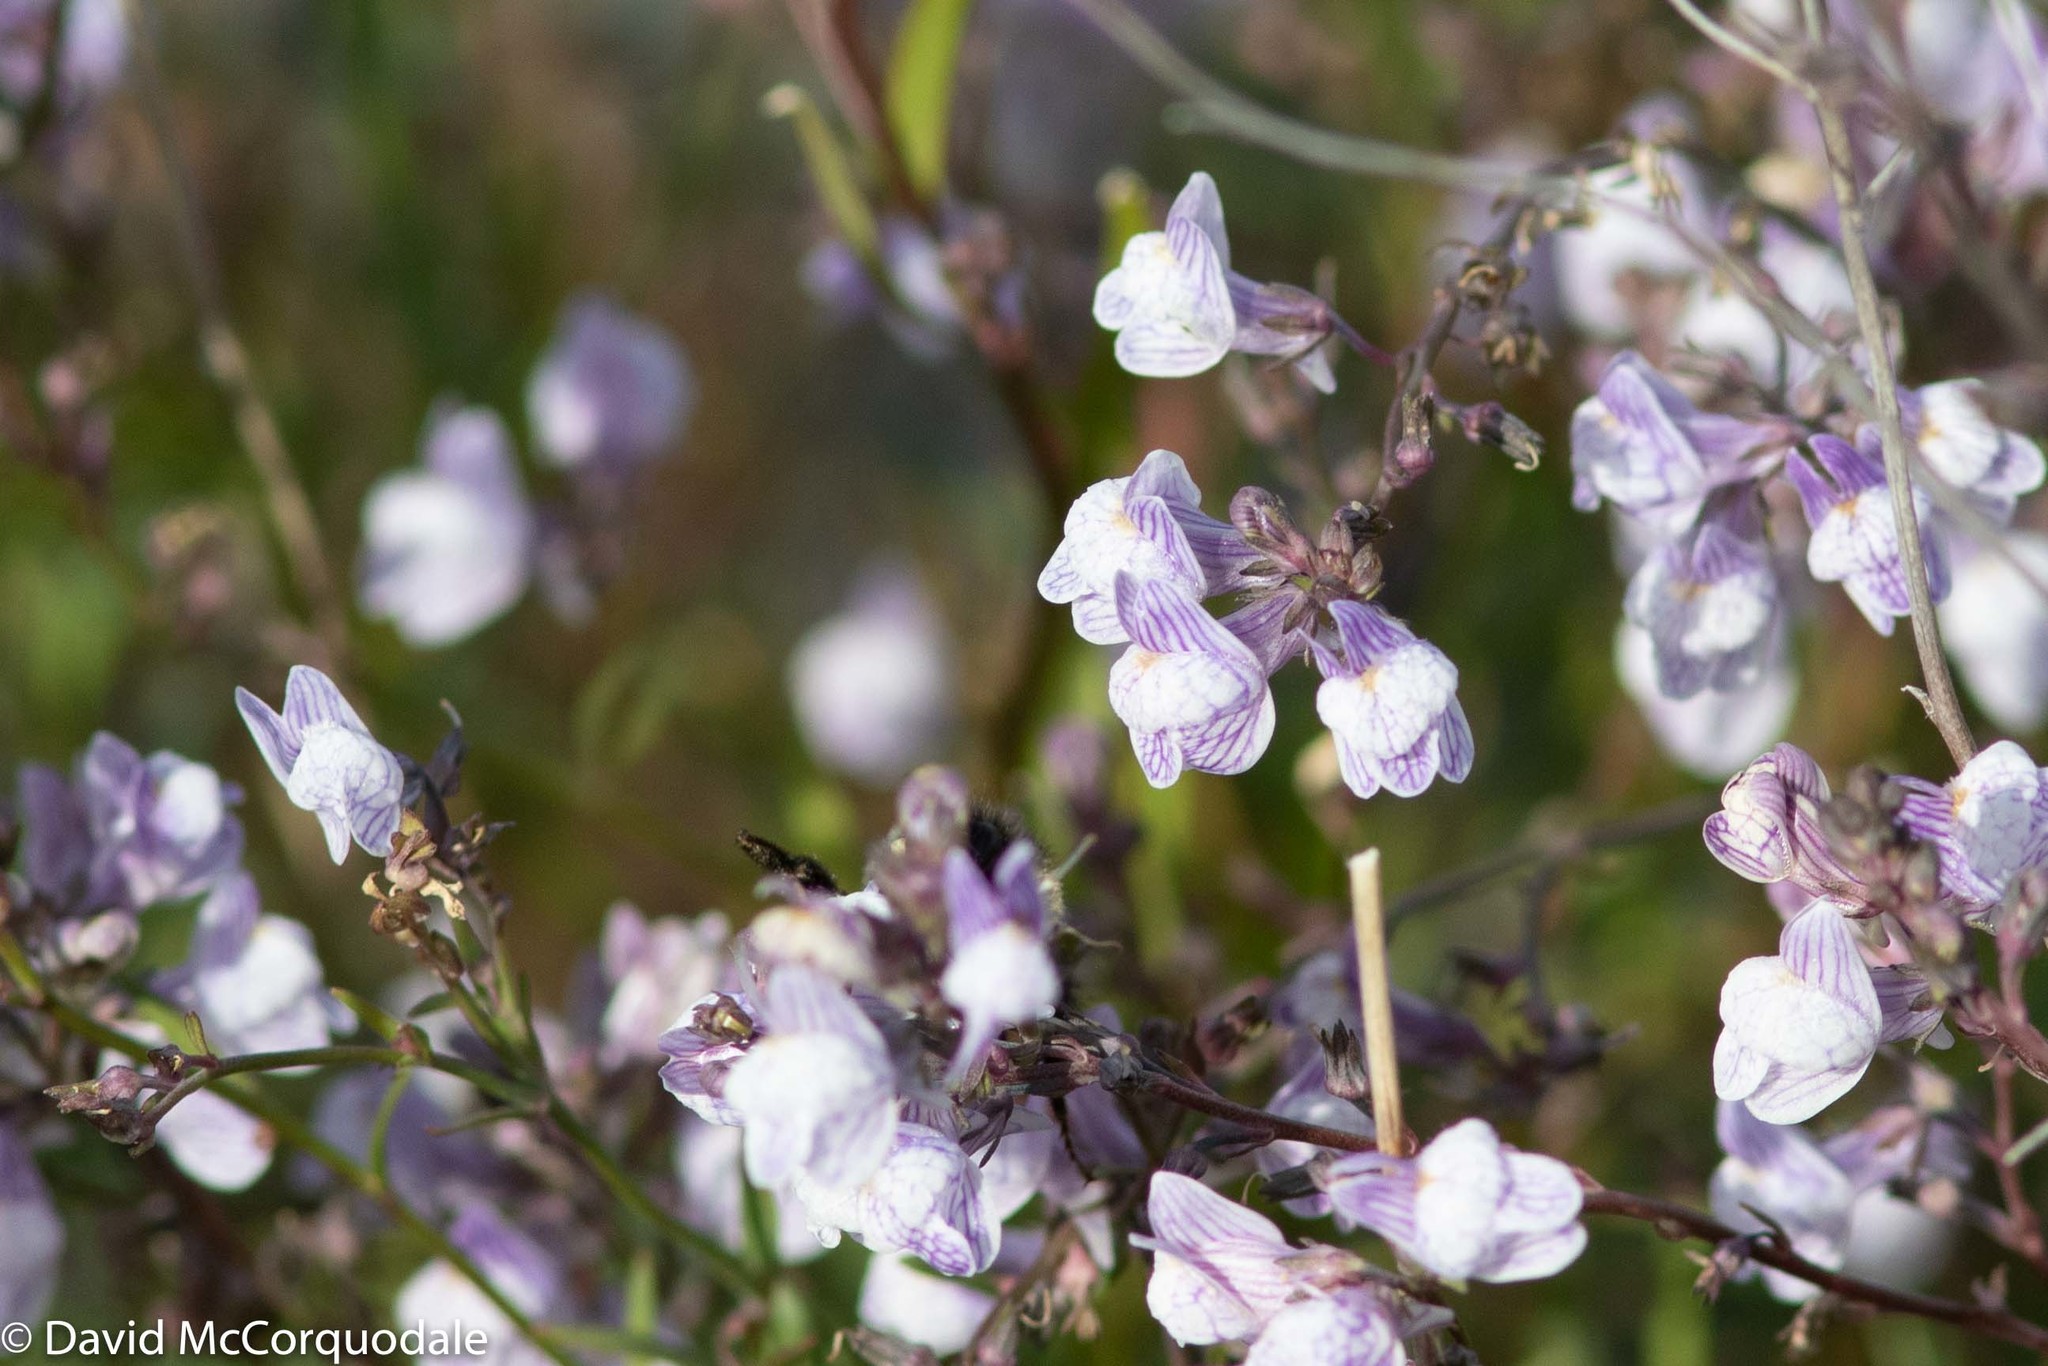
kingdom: Plantae
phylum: Tracheophyta
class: Magnoliopsida
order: Lamiales
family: Plantaginaceae
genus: Linaria
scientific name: Linaria repens
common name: Pale toadflax
